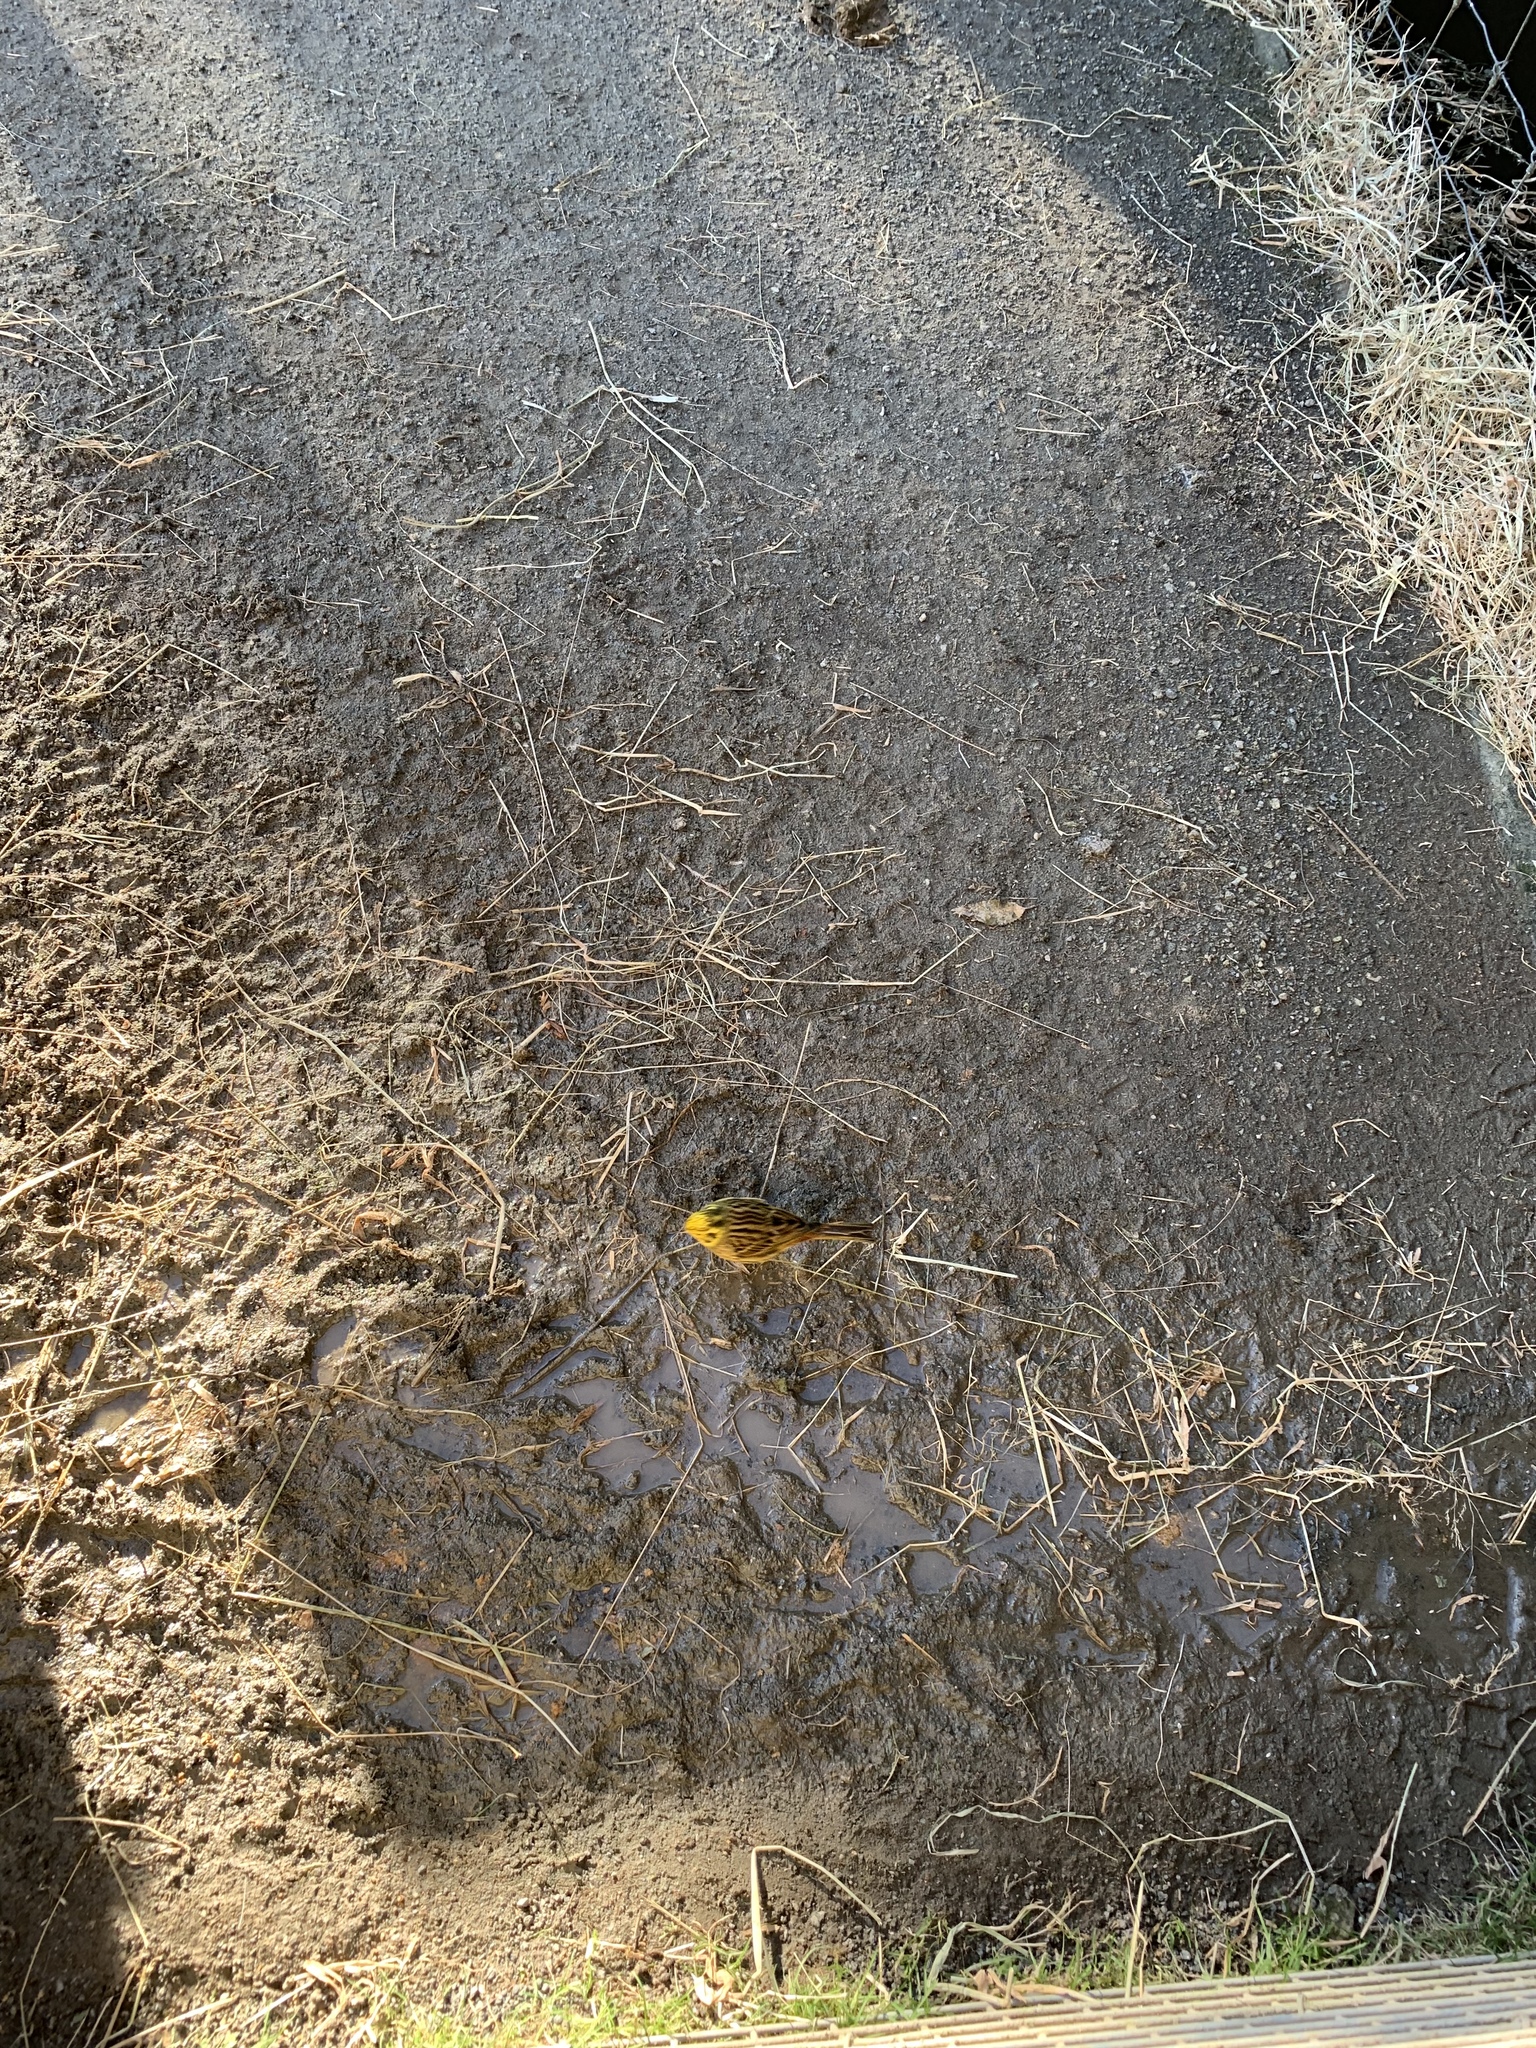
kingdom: Animalia
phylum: Chordata
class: Aves
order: Passeriformes
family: Emberizidae
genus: Emberiza
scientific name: Emberiza citrinella
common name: Yellowhammer
